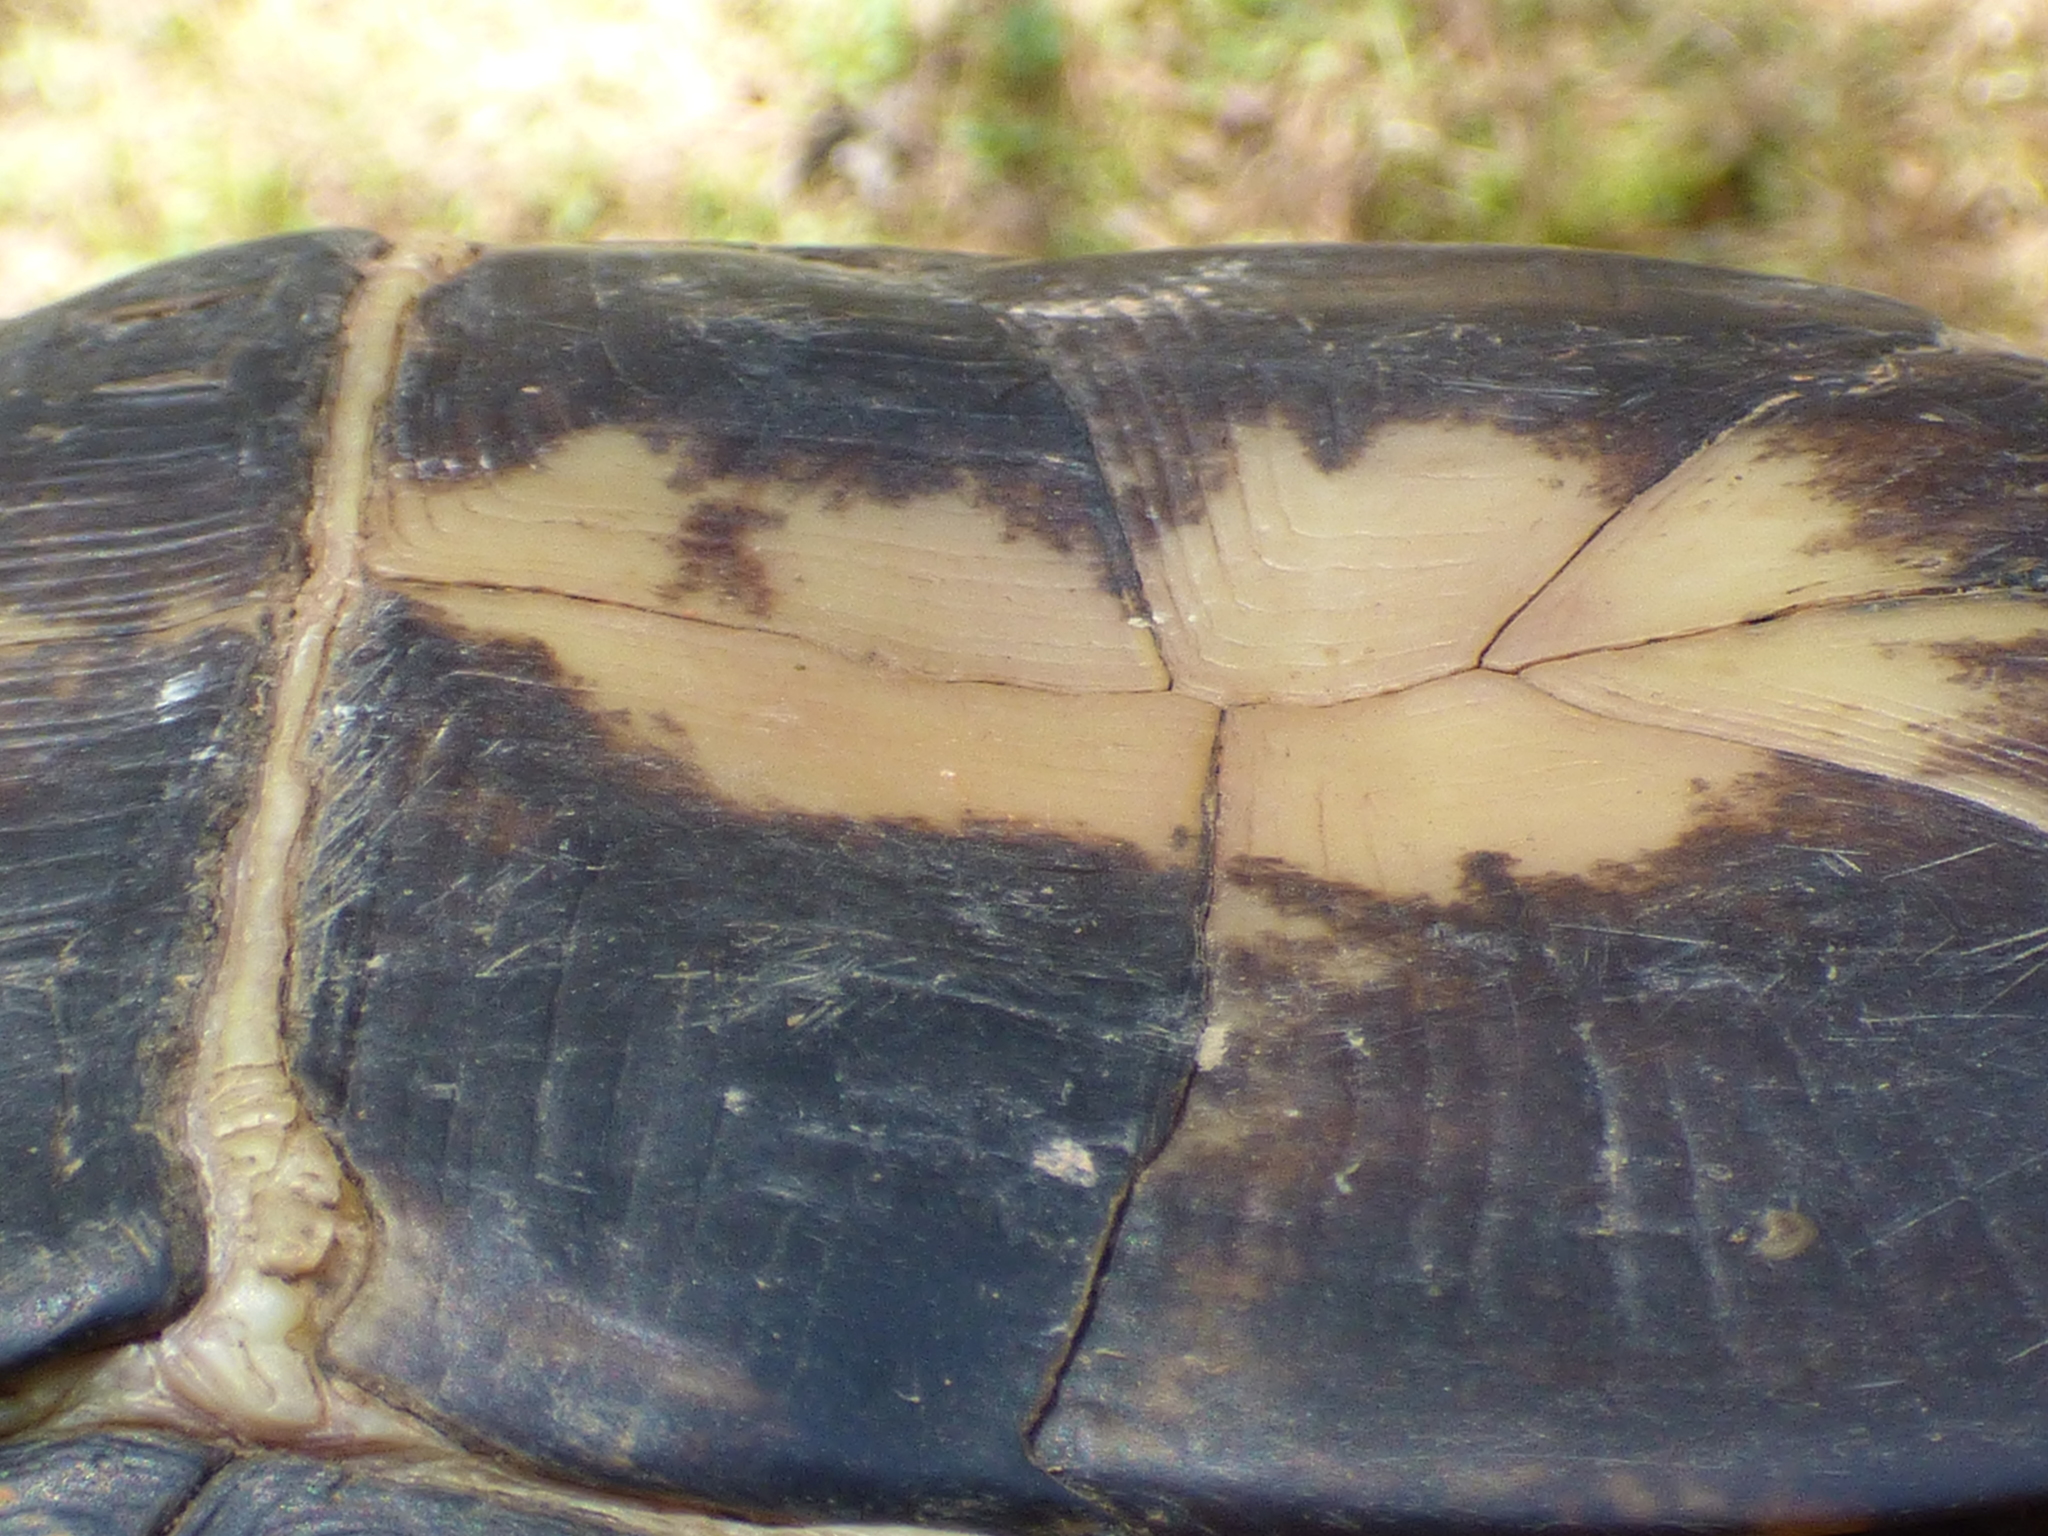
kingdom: Animalia
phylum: Chordata
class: Testudines
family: Emydidae
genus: Terrapene
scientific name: Terrapene carolina
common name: Common box turtle
